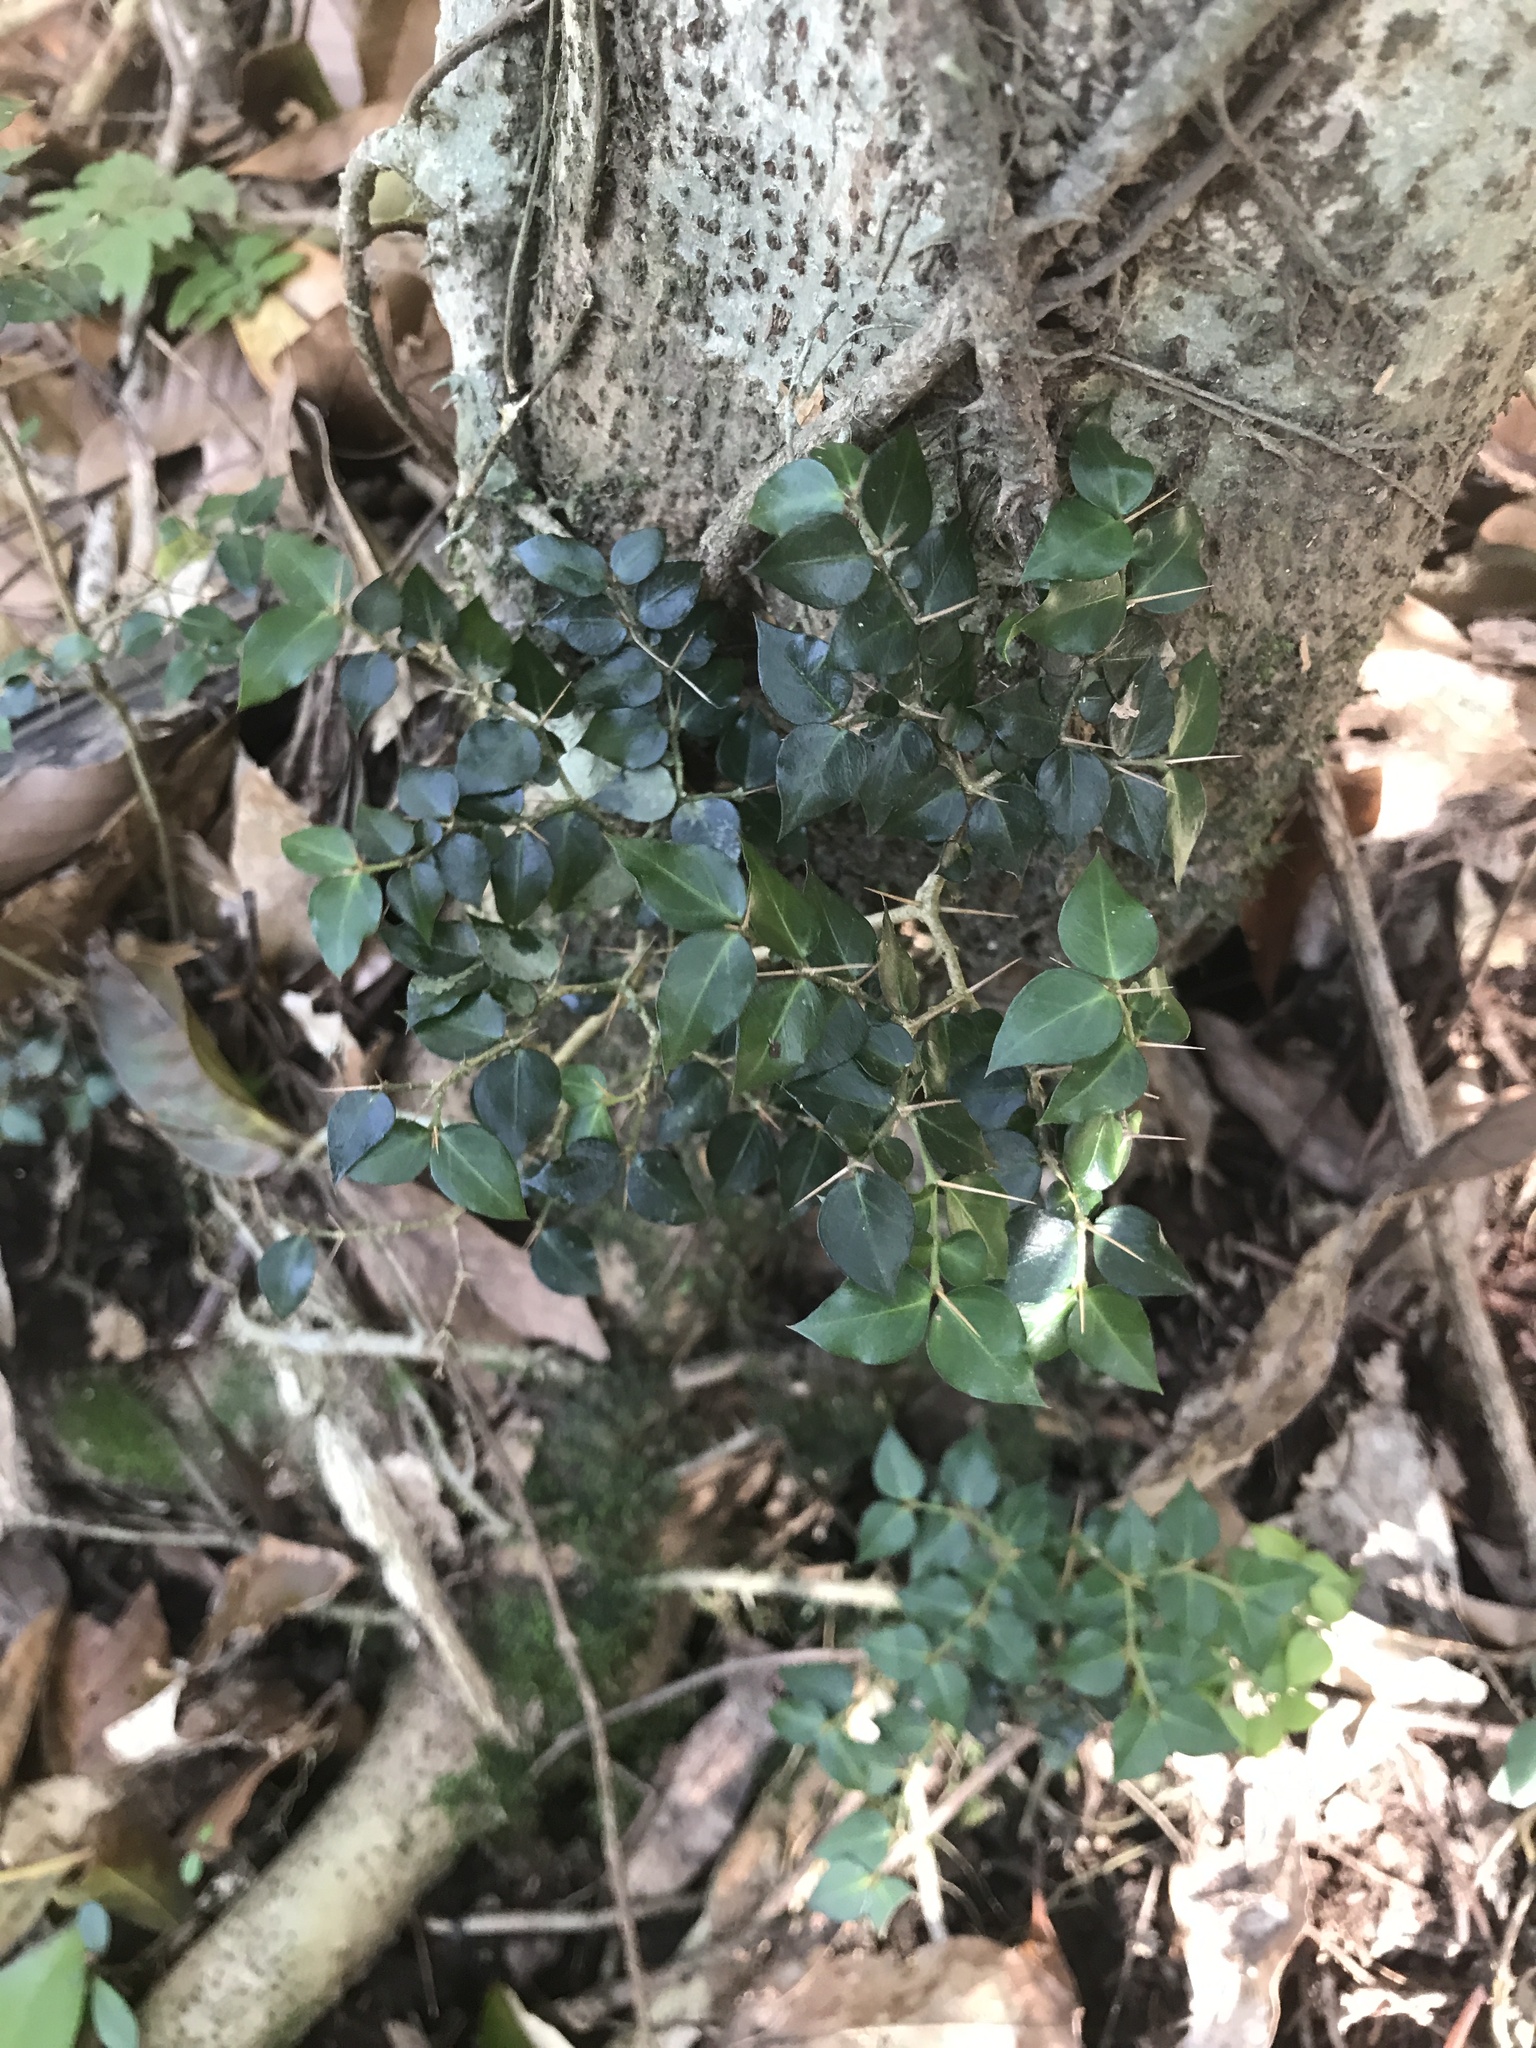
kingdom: Plantae
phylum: Tracheophyta
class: Magnoliopsida
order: Gentianales
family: Rubiaceae
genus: Damnacanthus
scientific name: Damnacanthus indicus
